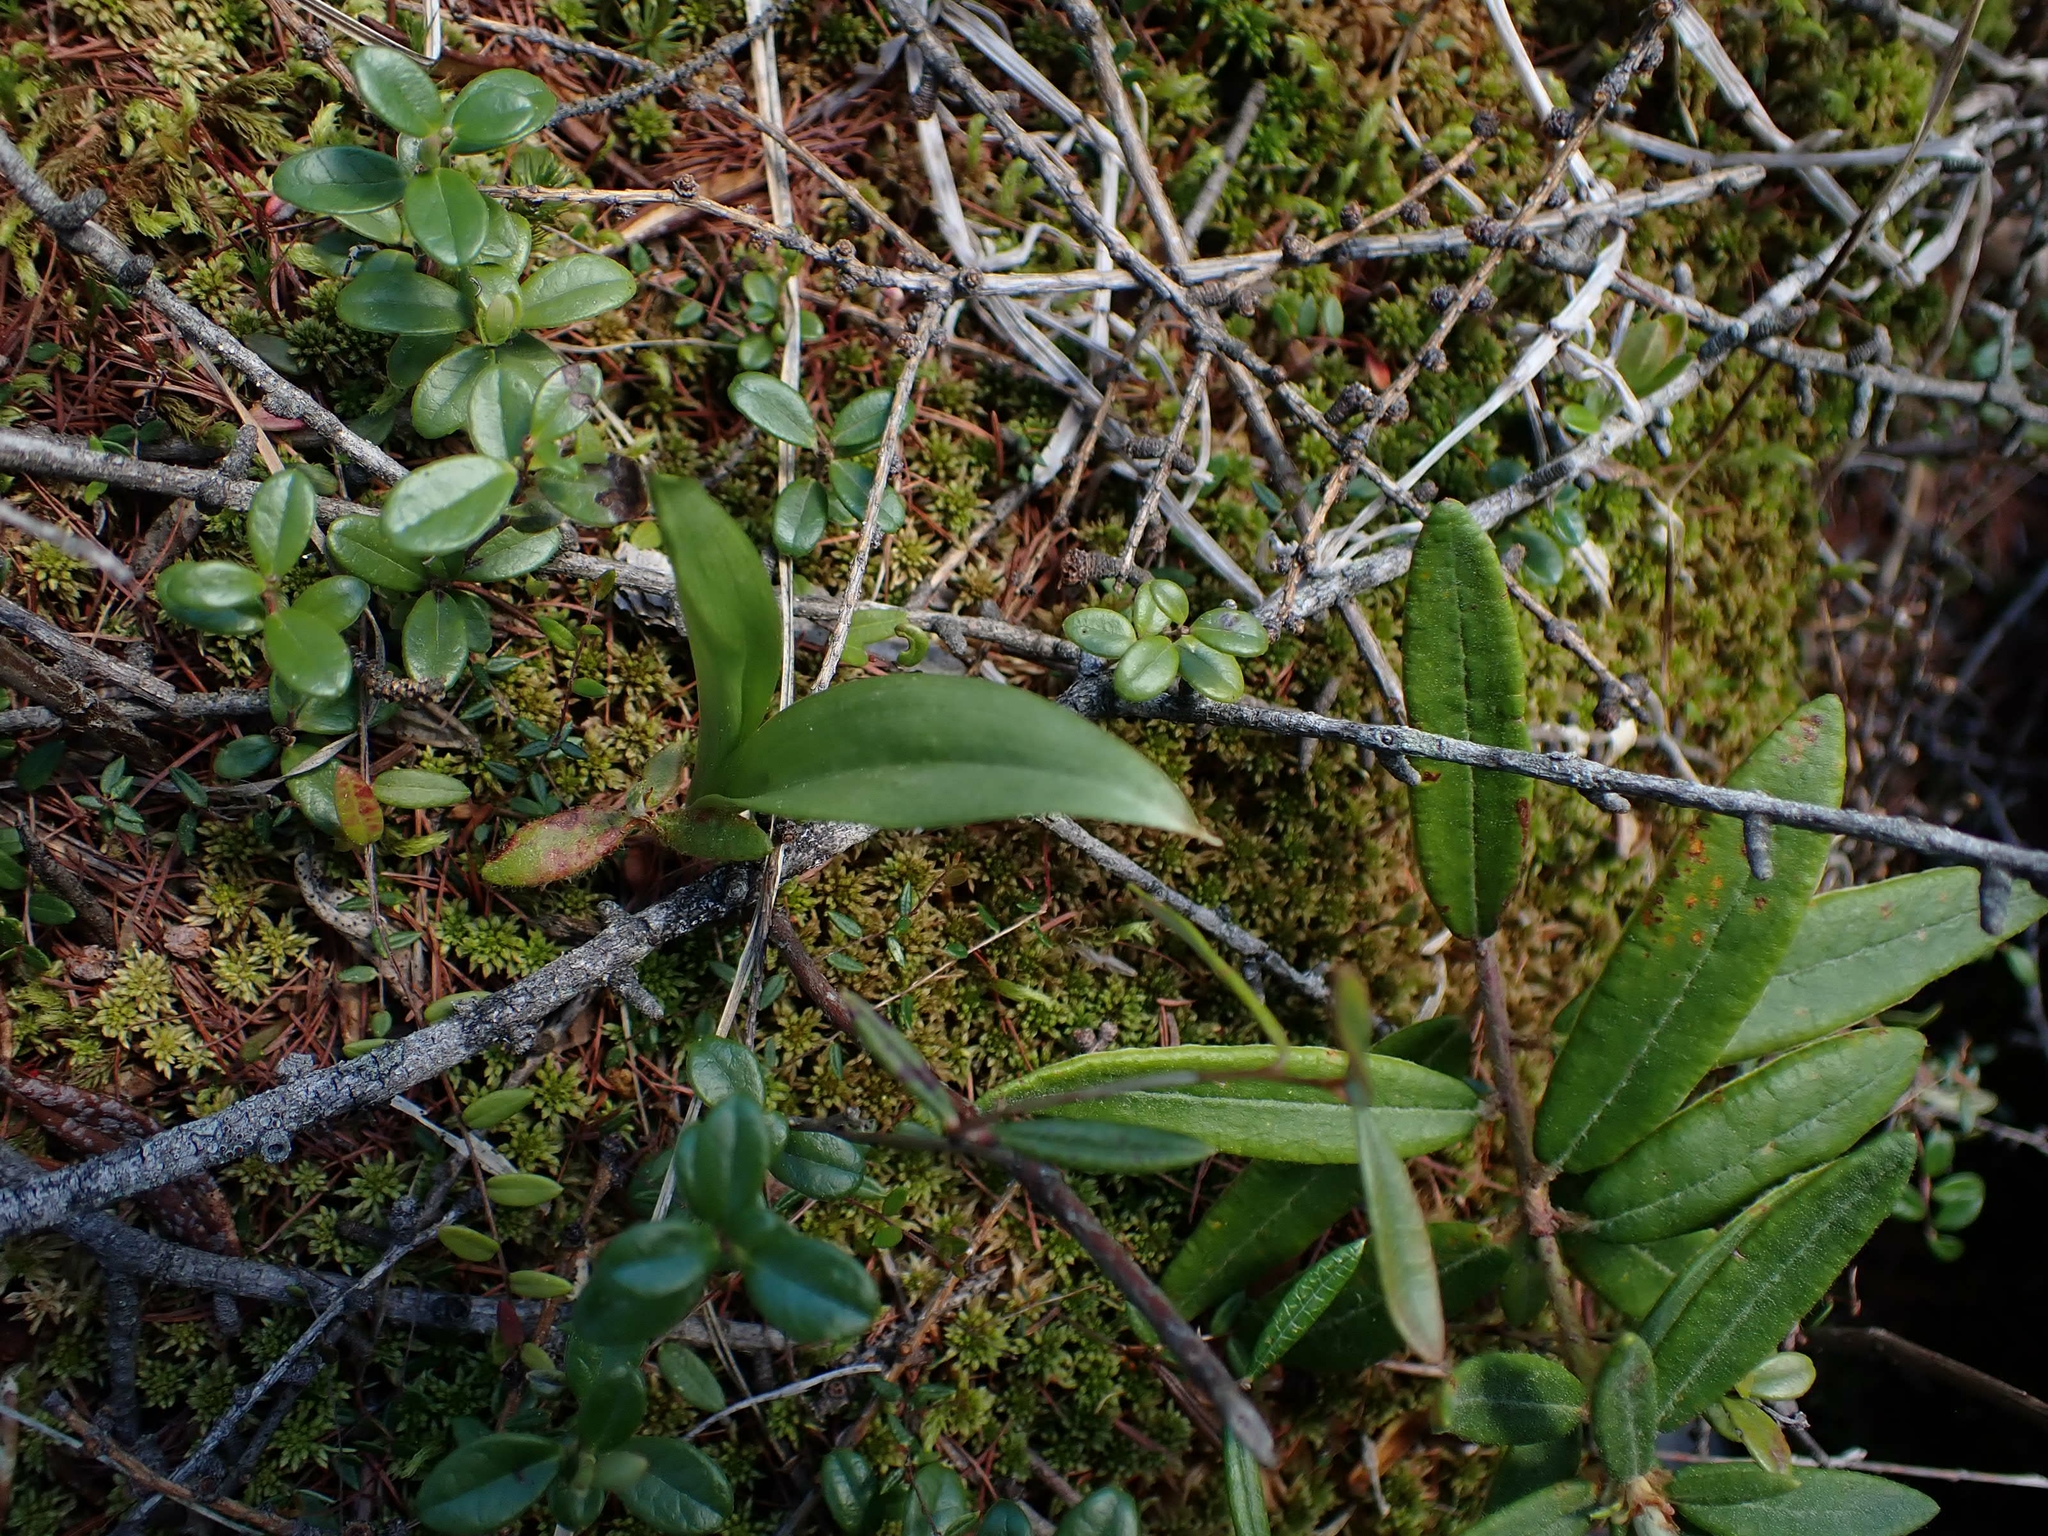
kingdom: Plantae
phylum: Tracheophyta
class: Liliopsida
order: Asparagales
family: Asparagaceae
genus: Maianthemum
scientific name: Maianthemum trifolium
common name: Swamp false solomon's seal
